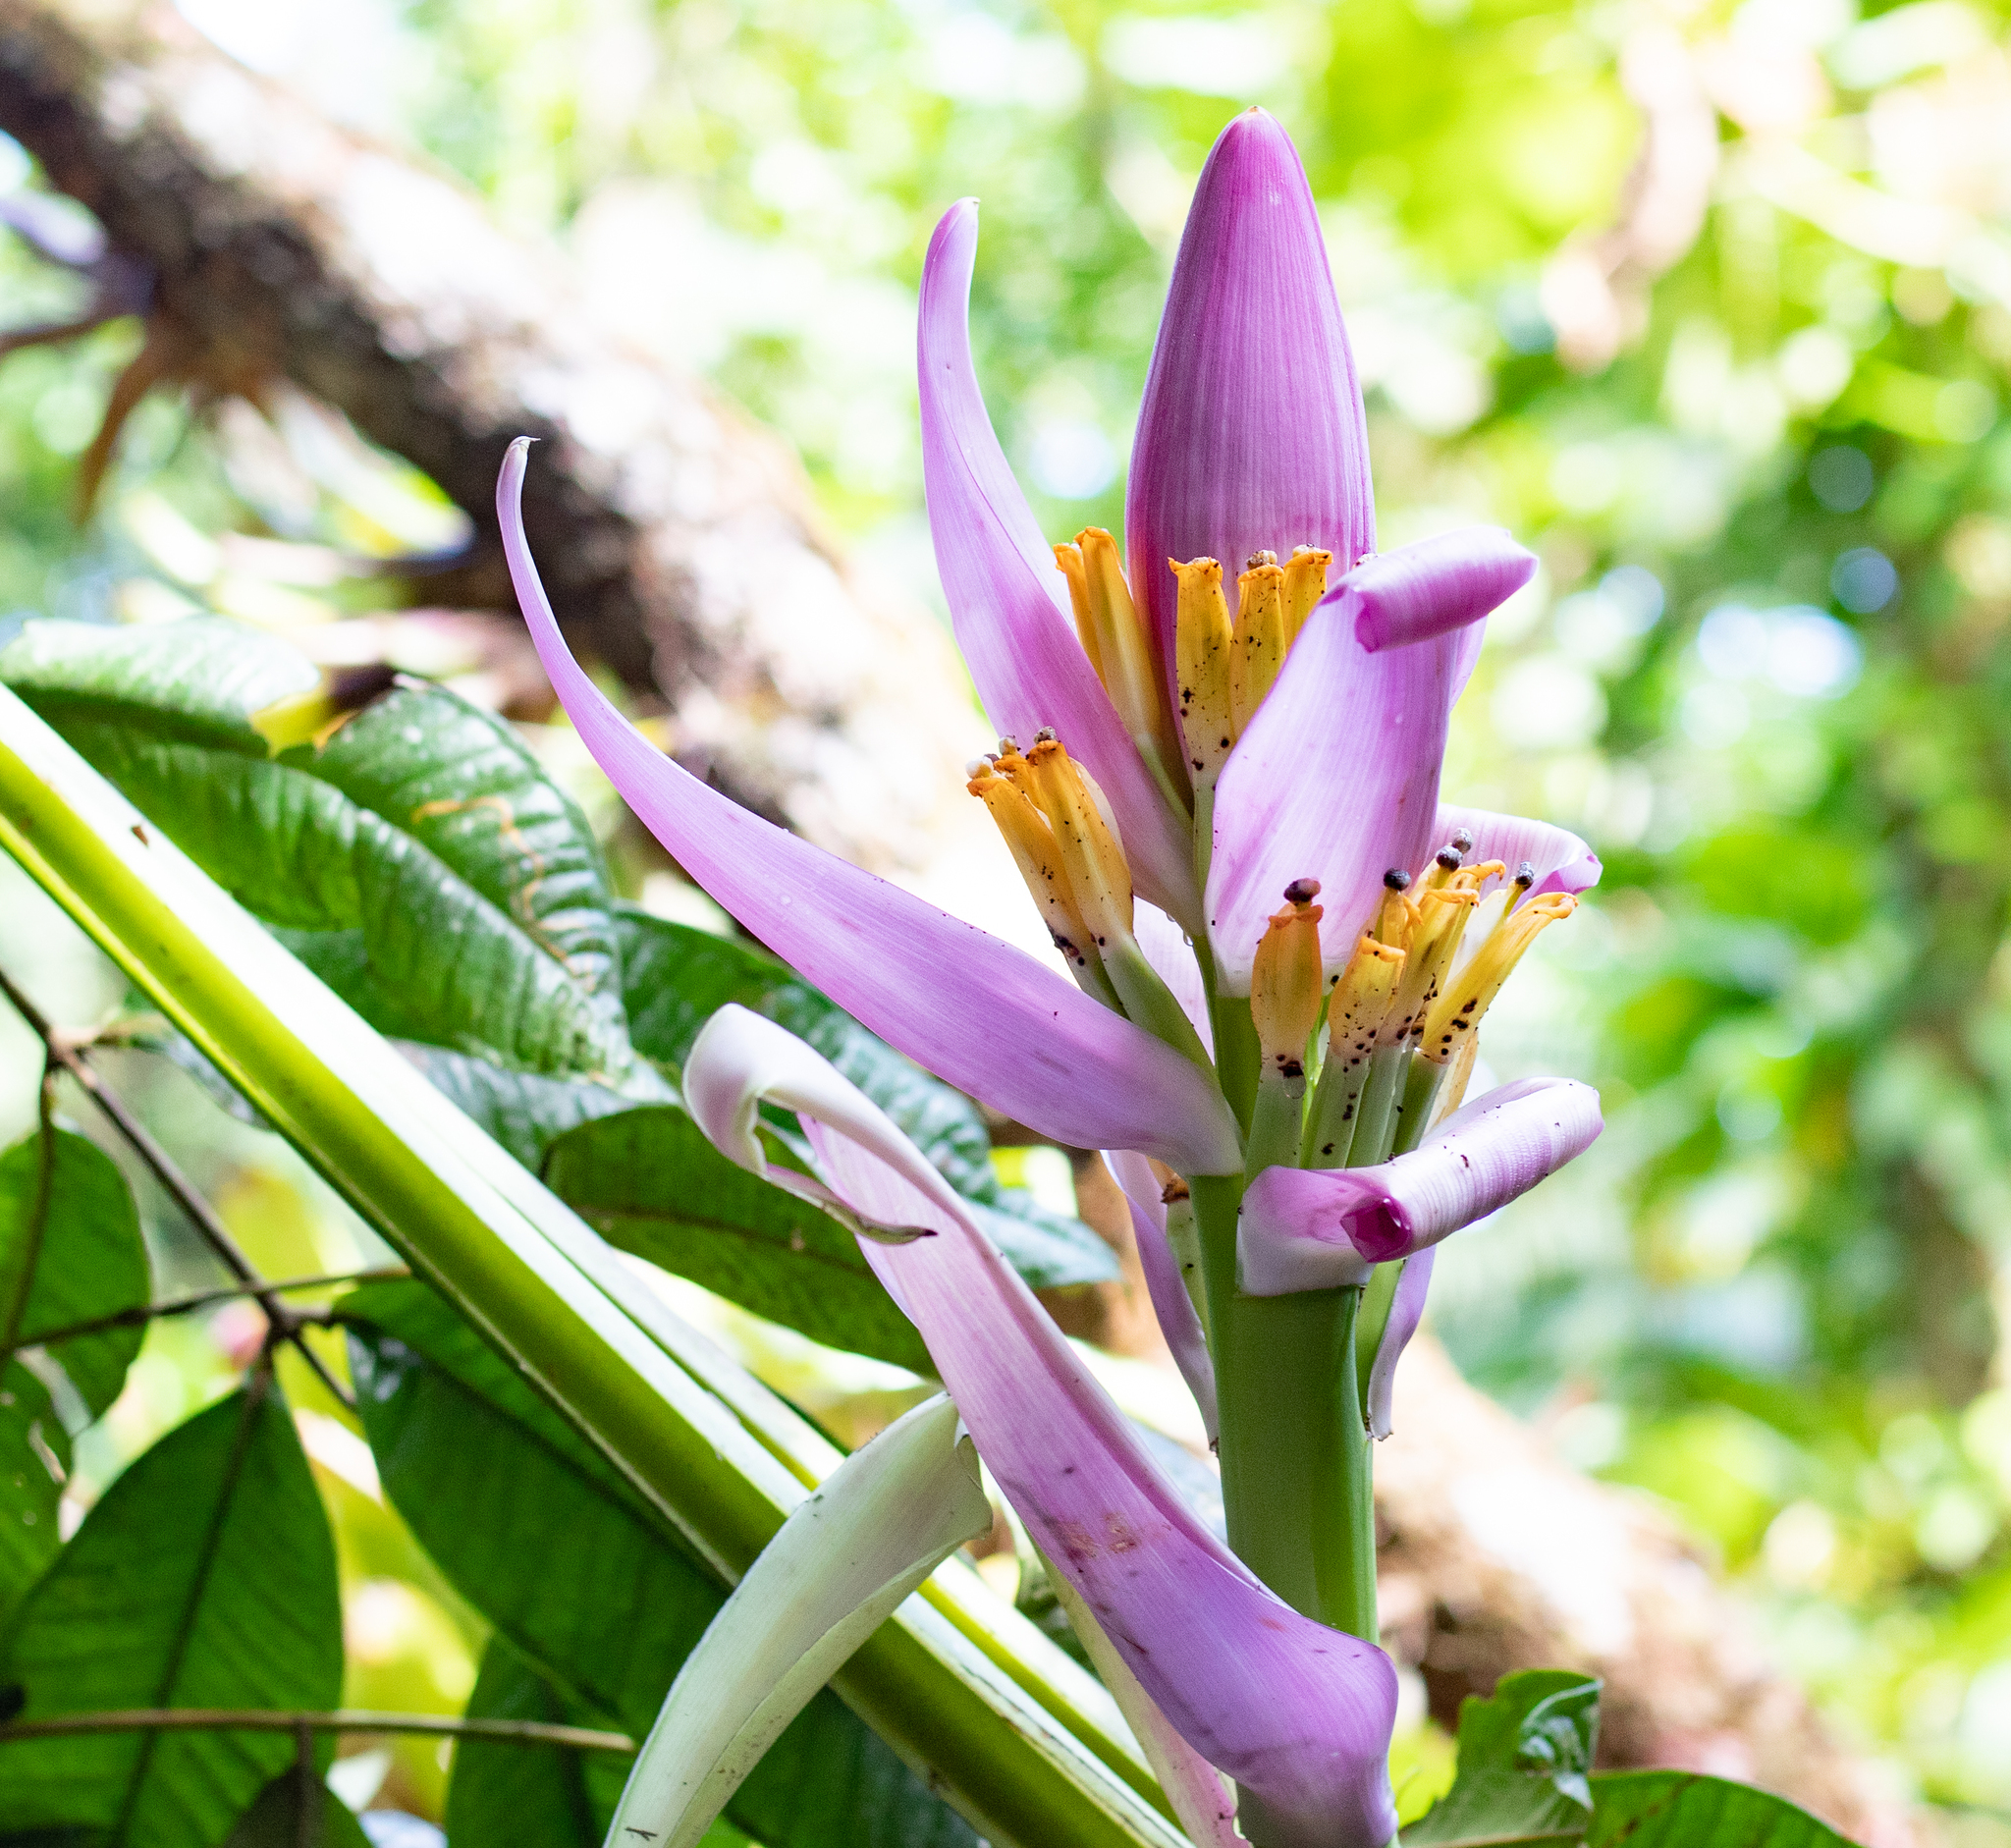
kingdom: Plantae
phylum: Tracheophyta
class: Liliopsida
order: Zingiberales
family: Musaceae
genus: Musa
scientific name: Musa ornata
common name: Flowering banana
